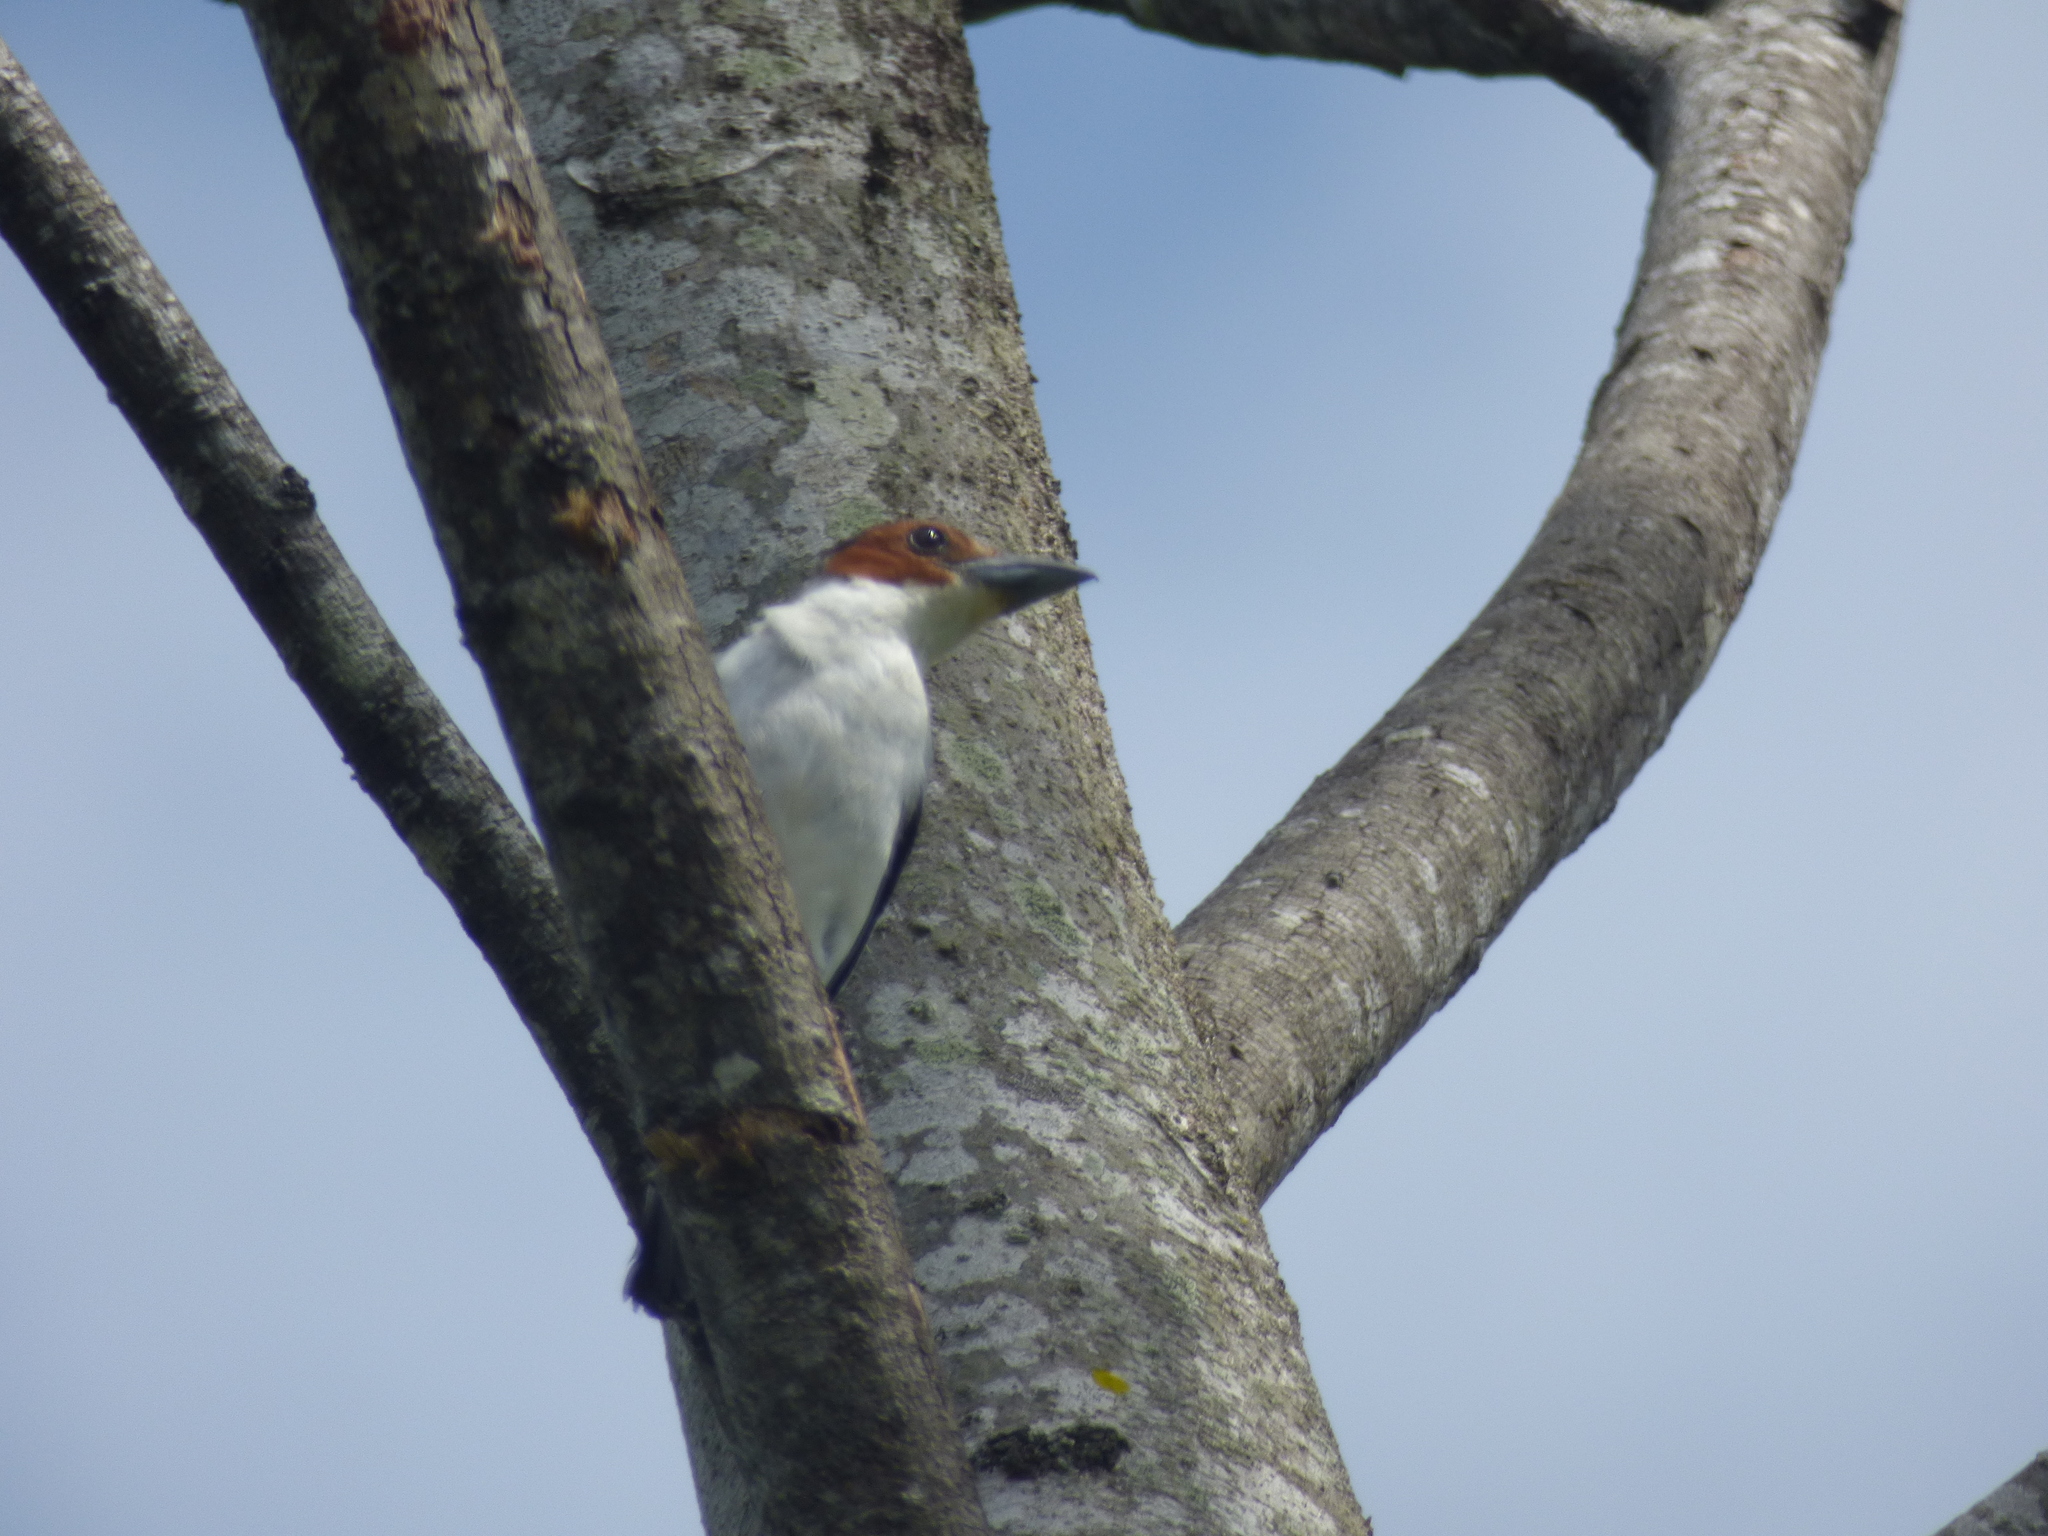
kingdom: Animalia
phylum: Chordata
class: Aves
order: Passeriformes
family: Cotingidae
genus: Tityra
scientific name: Tityra inquisitor
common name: Black-crowned tityra
